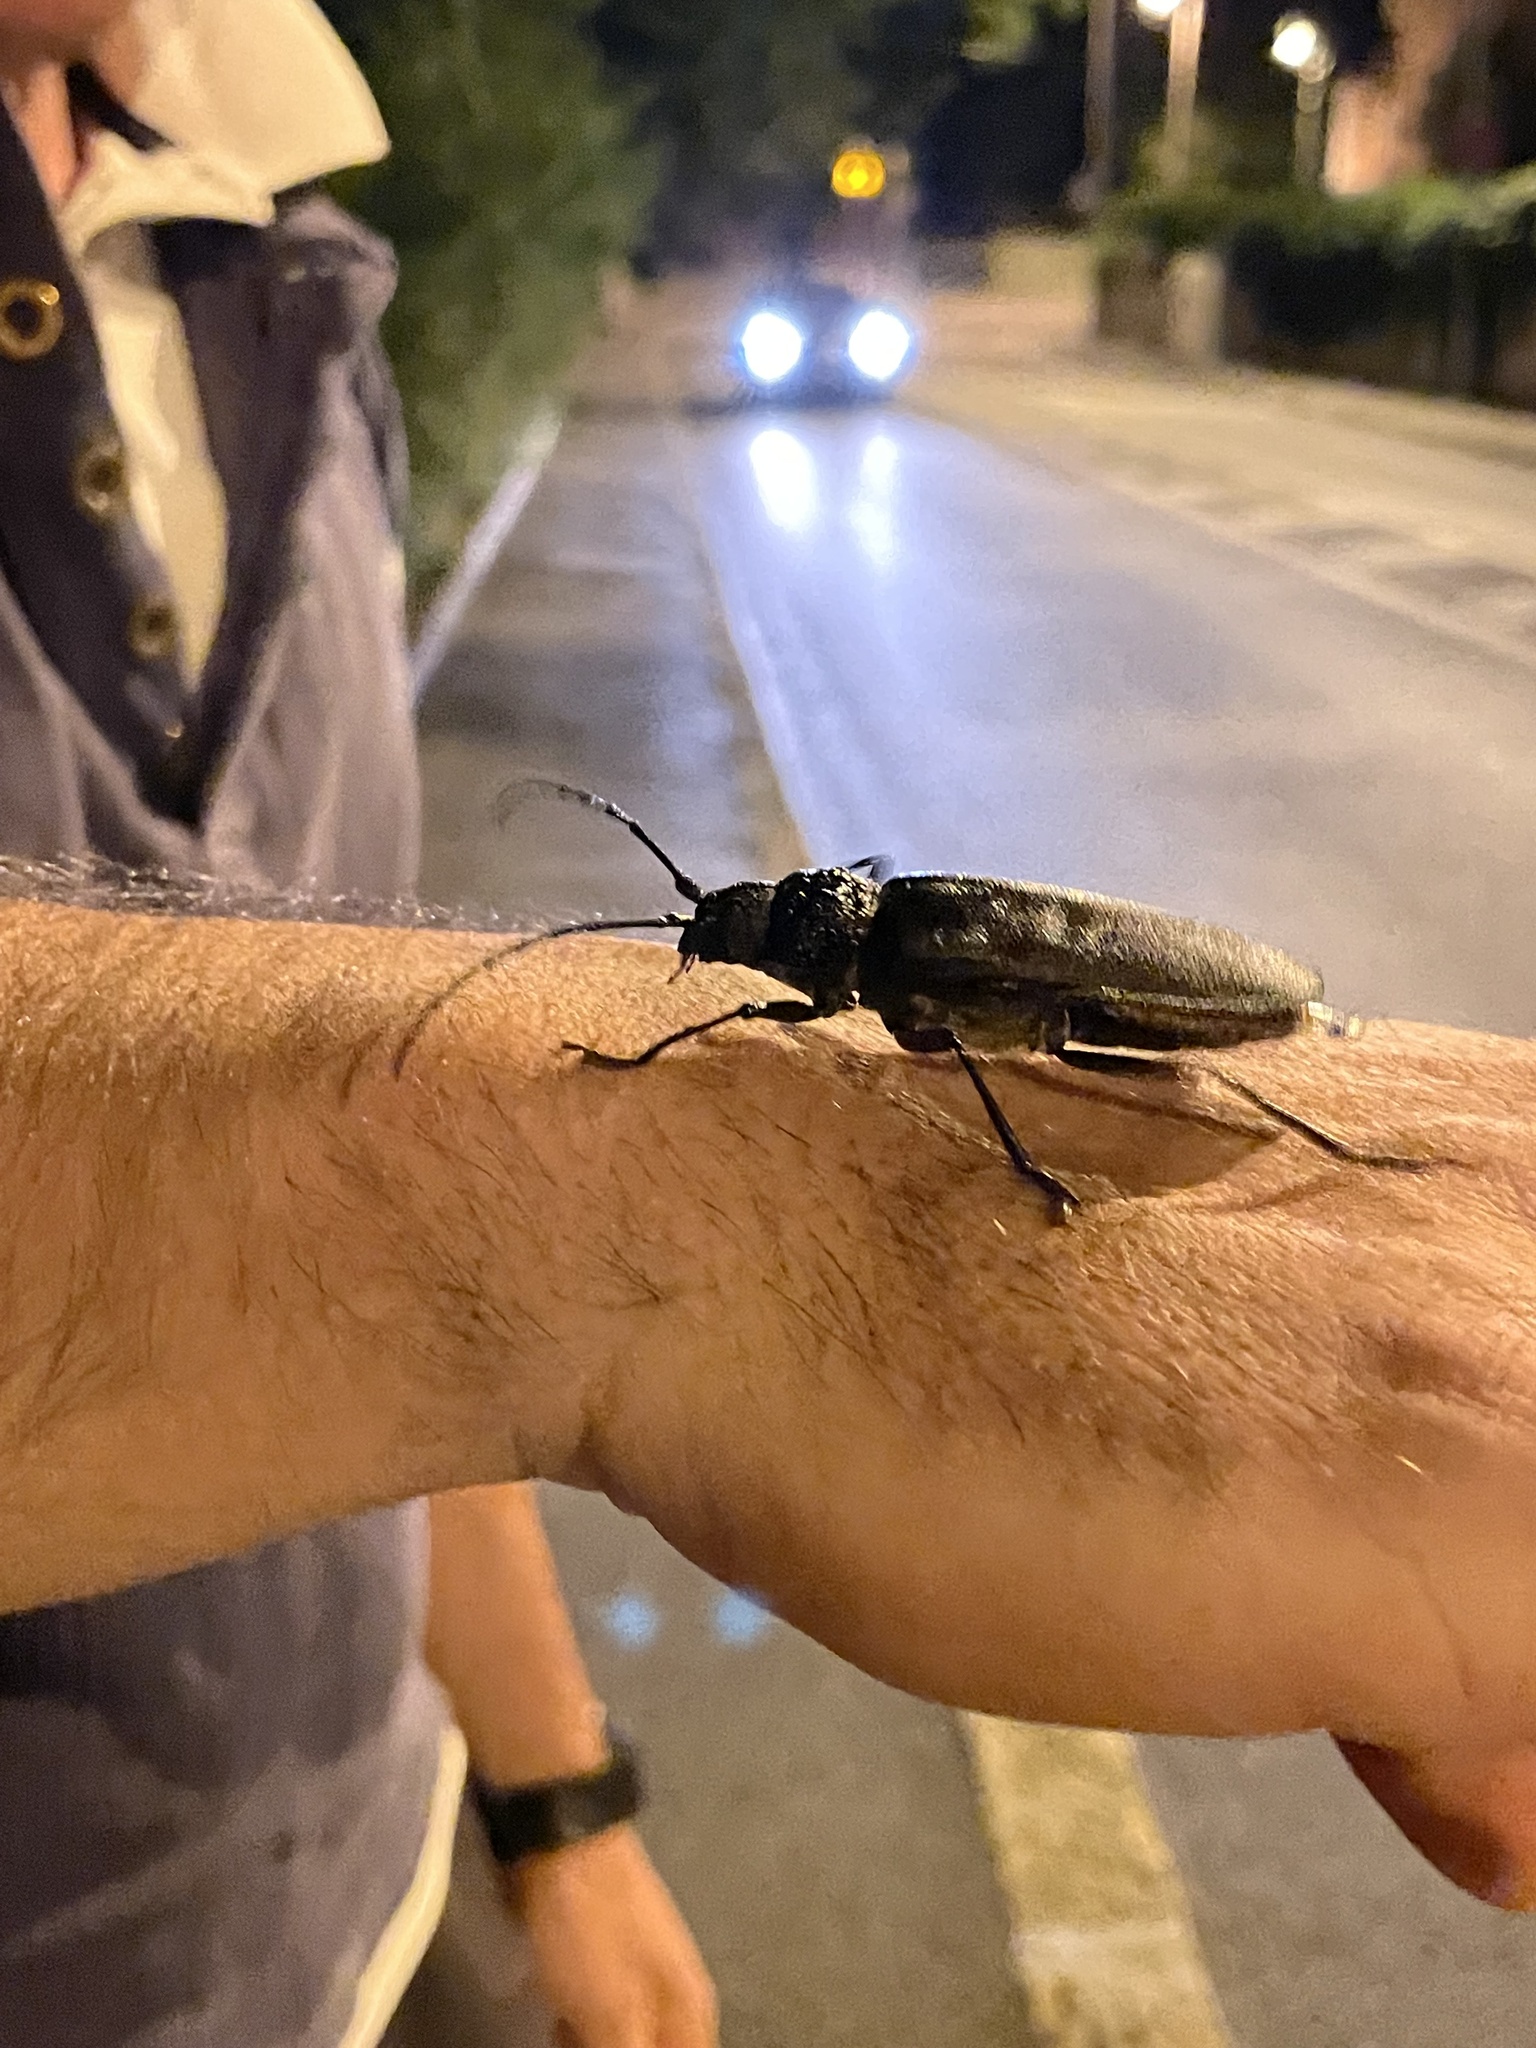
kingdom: Animalia
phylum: Arthropoda
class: Insecta
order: Coleoptera
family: Cerambycidae
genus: Ergates
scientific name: Ergates faber
